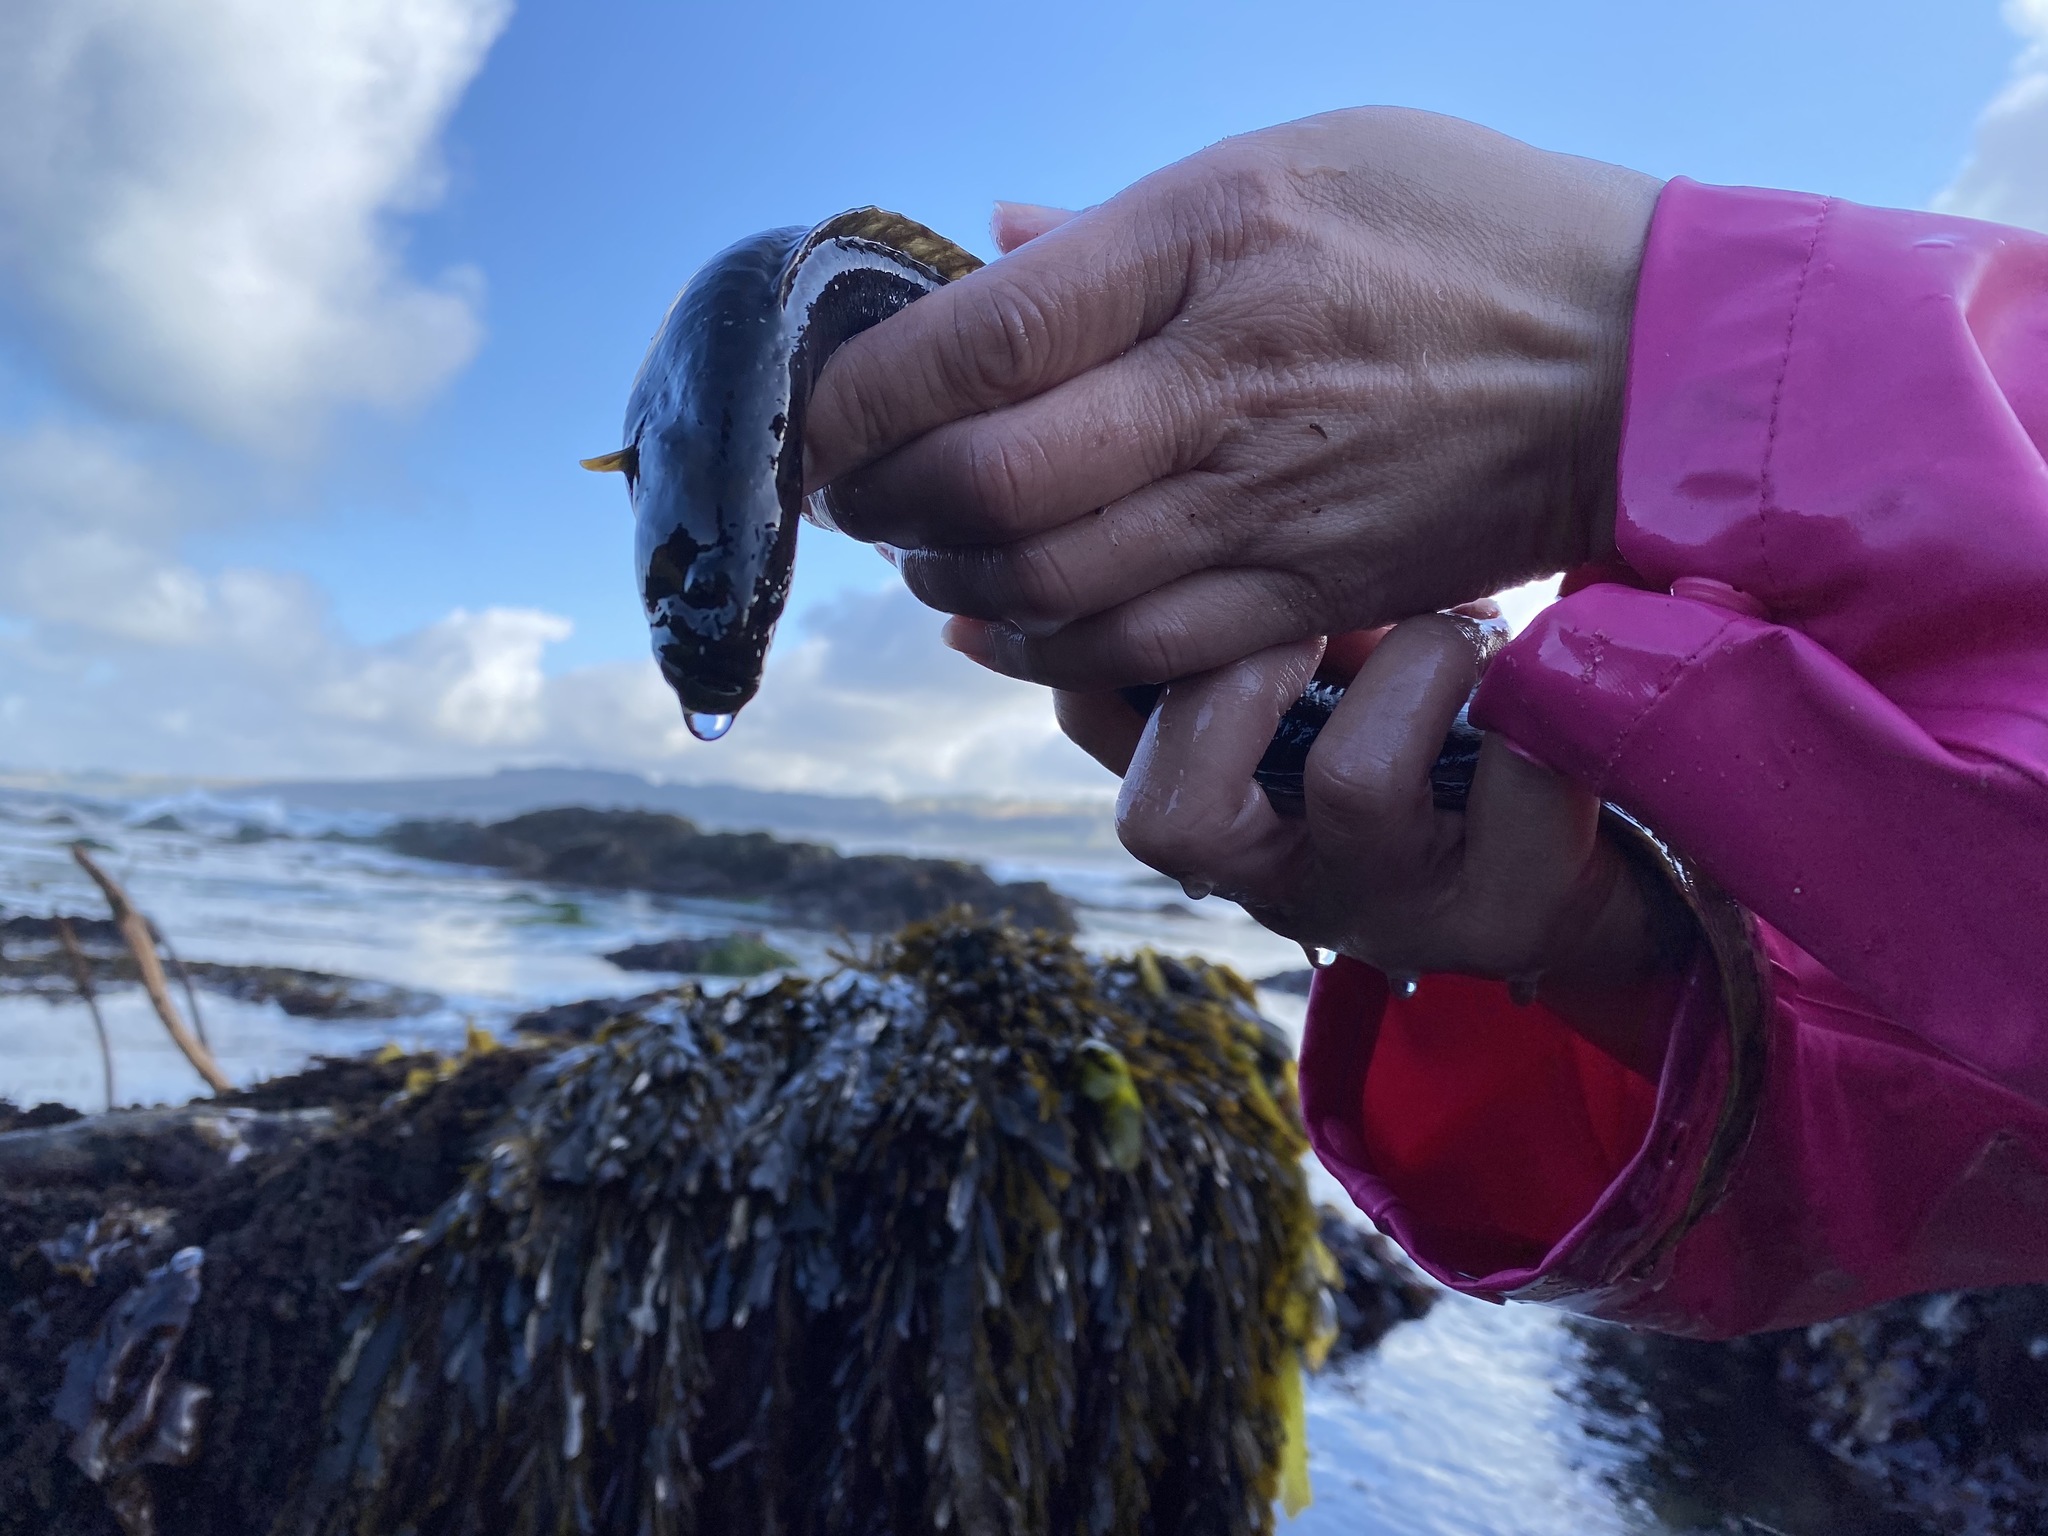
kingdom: Animalia
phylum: Chordata
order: Perciformes
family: Stichaeidae
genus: Cebidichthys
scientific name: Cebidichthys violaceus
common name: Monkeyface prickleback
